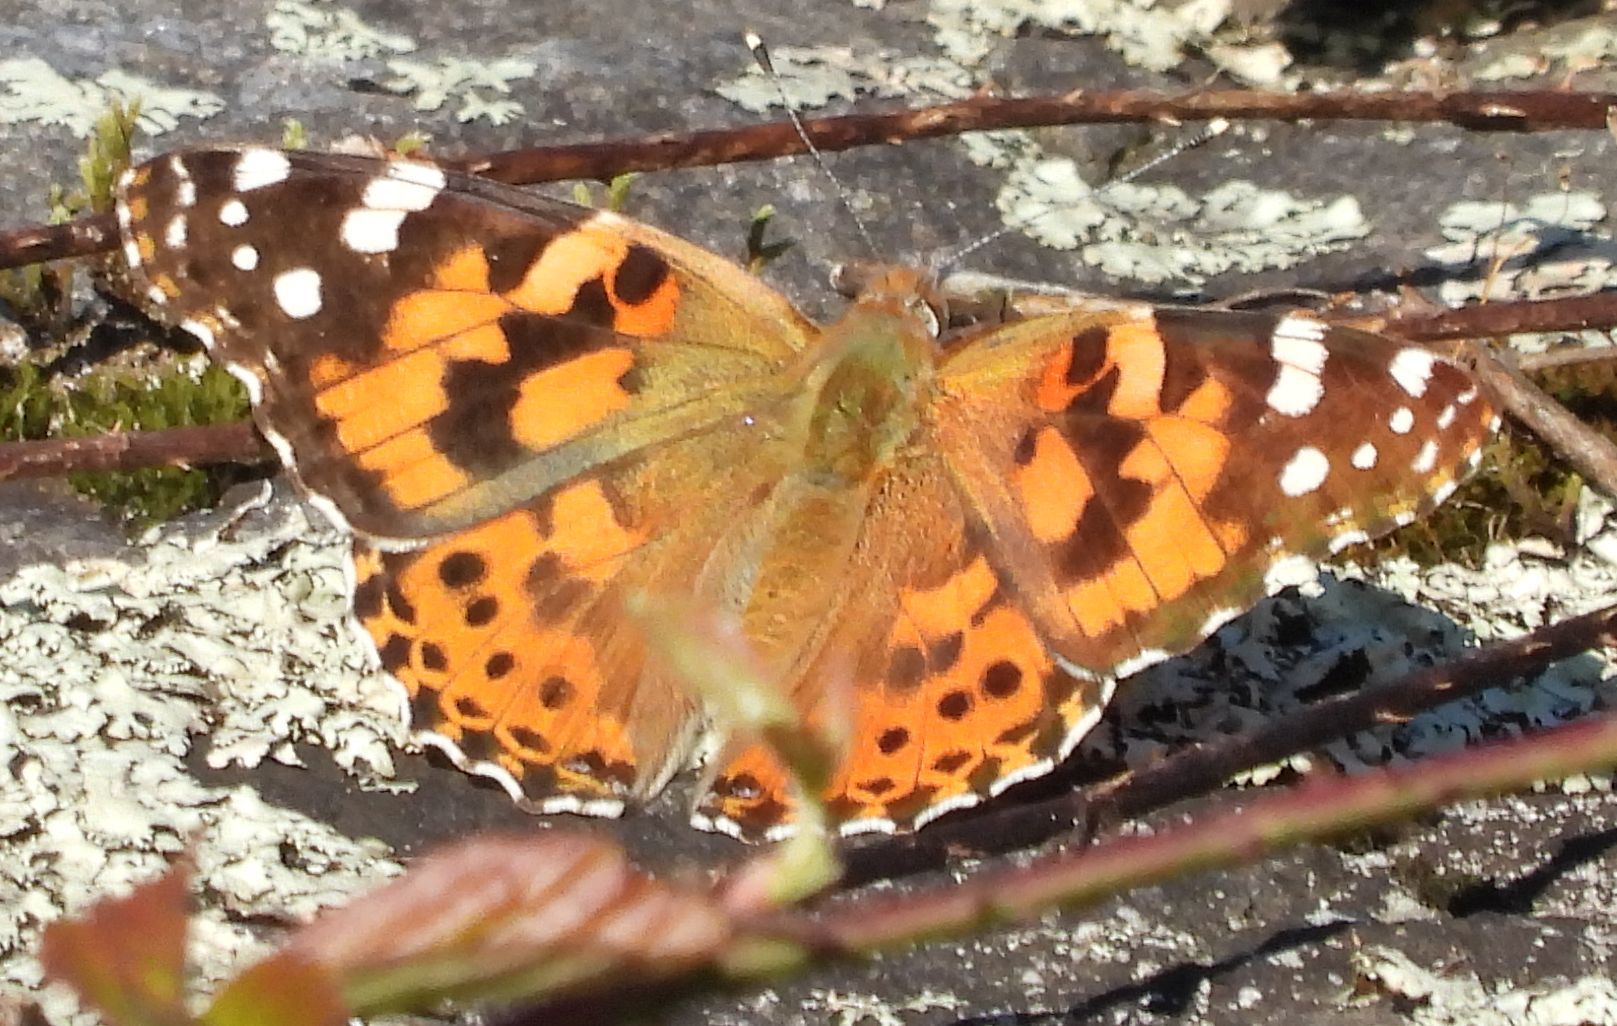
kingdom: Animalia
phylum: Arthropoda
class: Insecta
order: Lepidoptera
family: Nymphalidae
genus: Vanessa
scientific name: Vanessa cardui
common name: Painted lady
